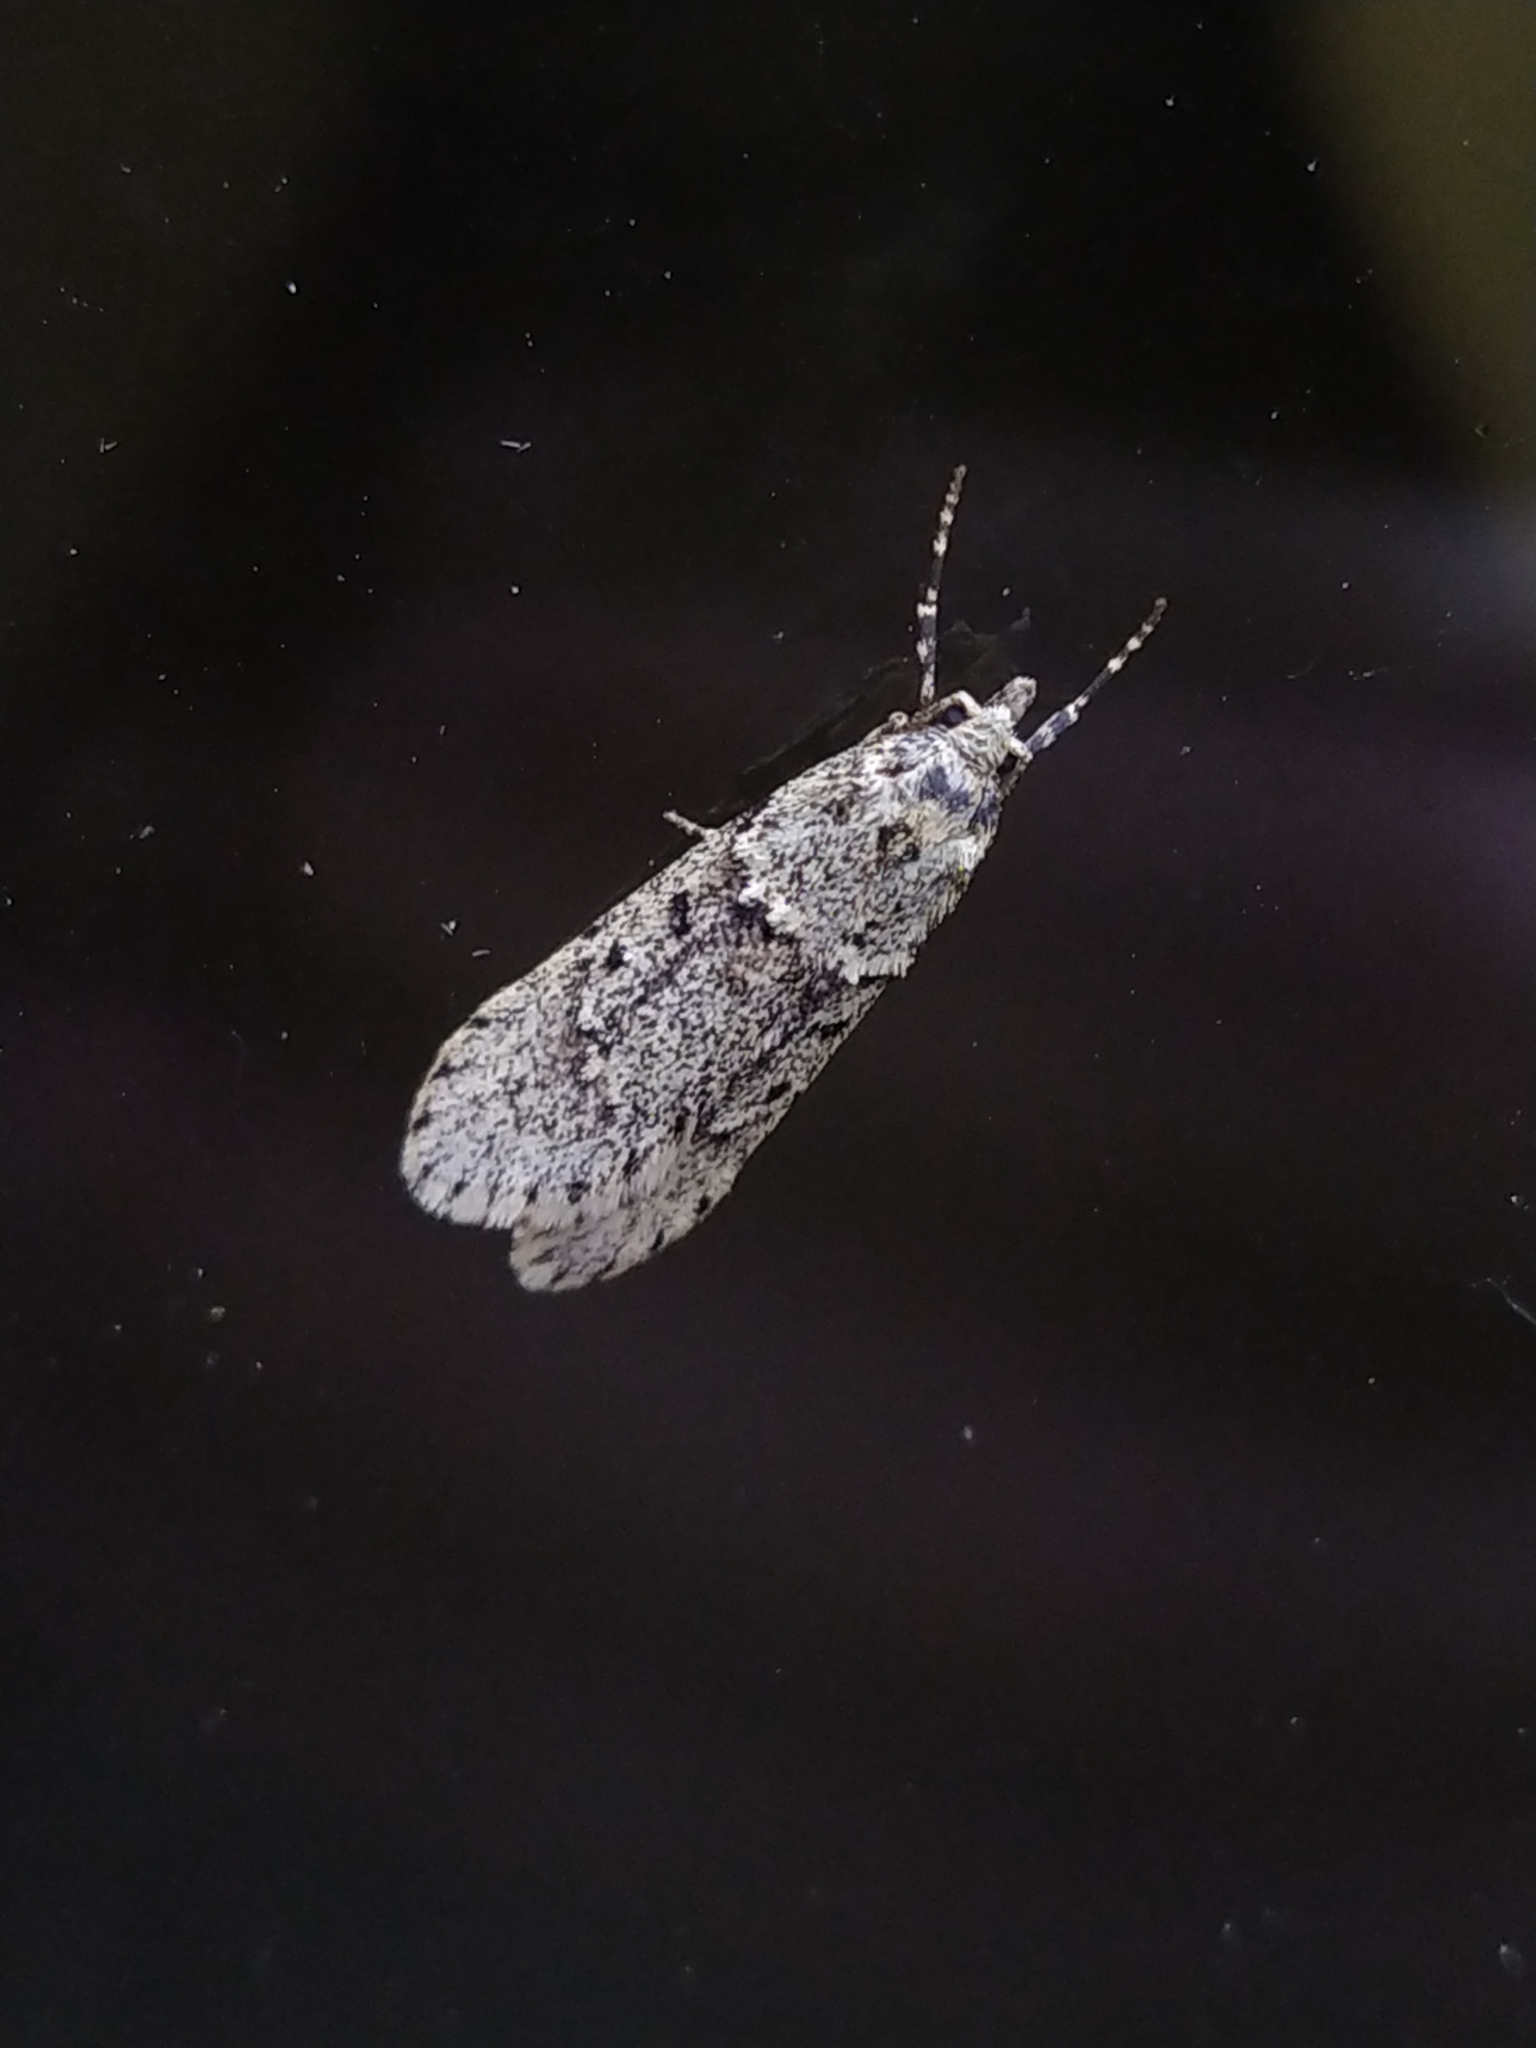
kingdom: Animalia
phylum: Arthropoda
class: Insecta
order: Lepidoptera
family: Lypusidae
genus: Diurnea
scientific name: Diurnea fagella
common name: March tubic
